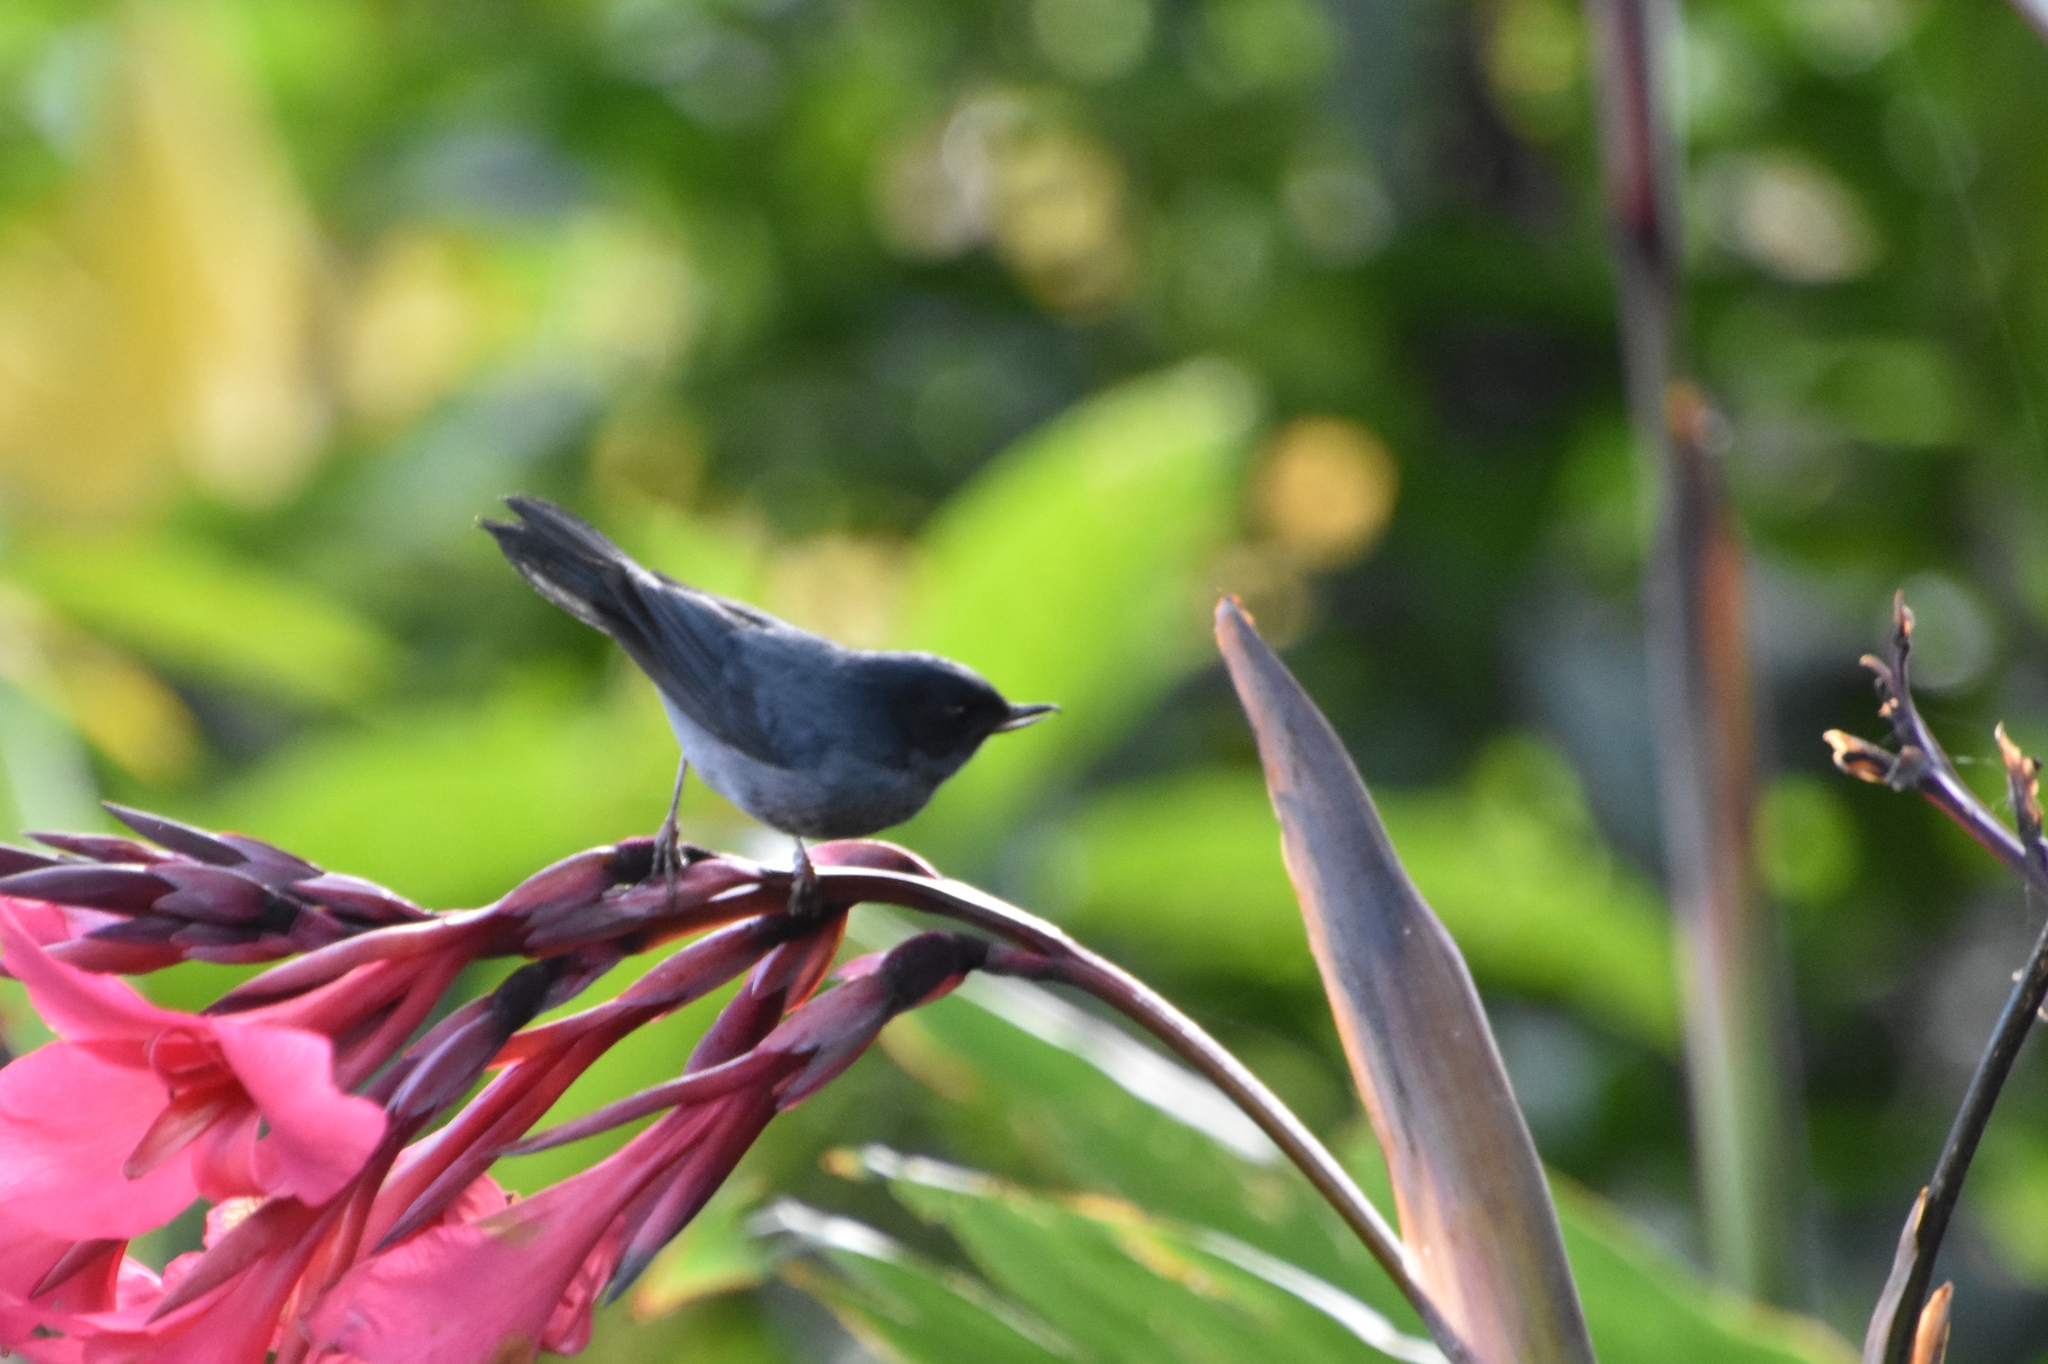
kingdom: Animalia
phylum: Chordata
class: Aves
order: Passeriformes
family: Thraupidae
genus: Diglossa
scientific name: Diglossa plumbea
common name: Slaty flowerpiercer
